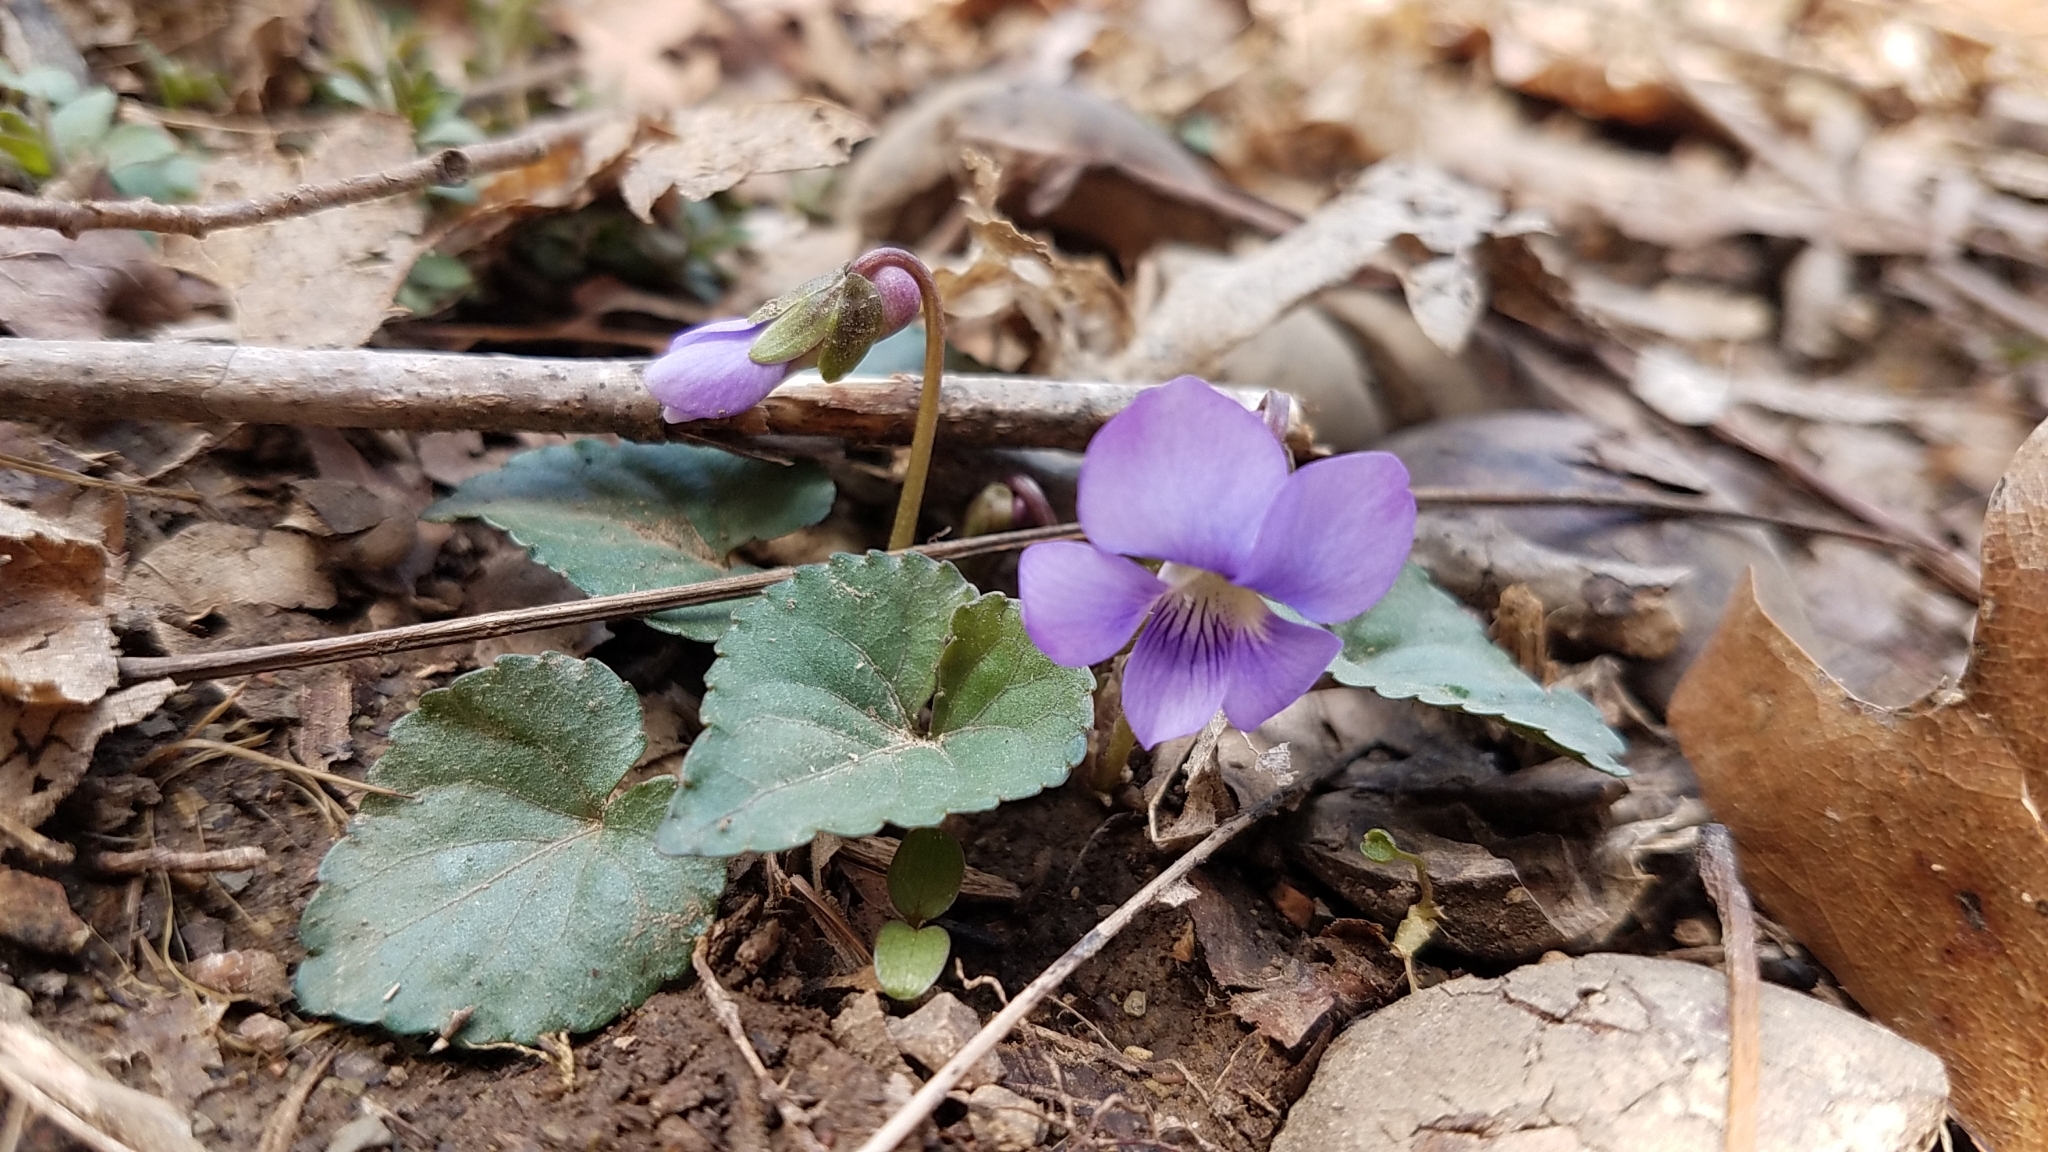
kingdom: Plantae
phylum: Tracheophyta
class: Magnoliopsida
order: Malpighiales
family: Violaceae
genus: Viola
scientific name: Viola sororia
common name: Dooryard violet
